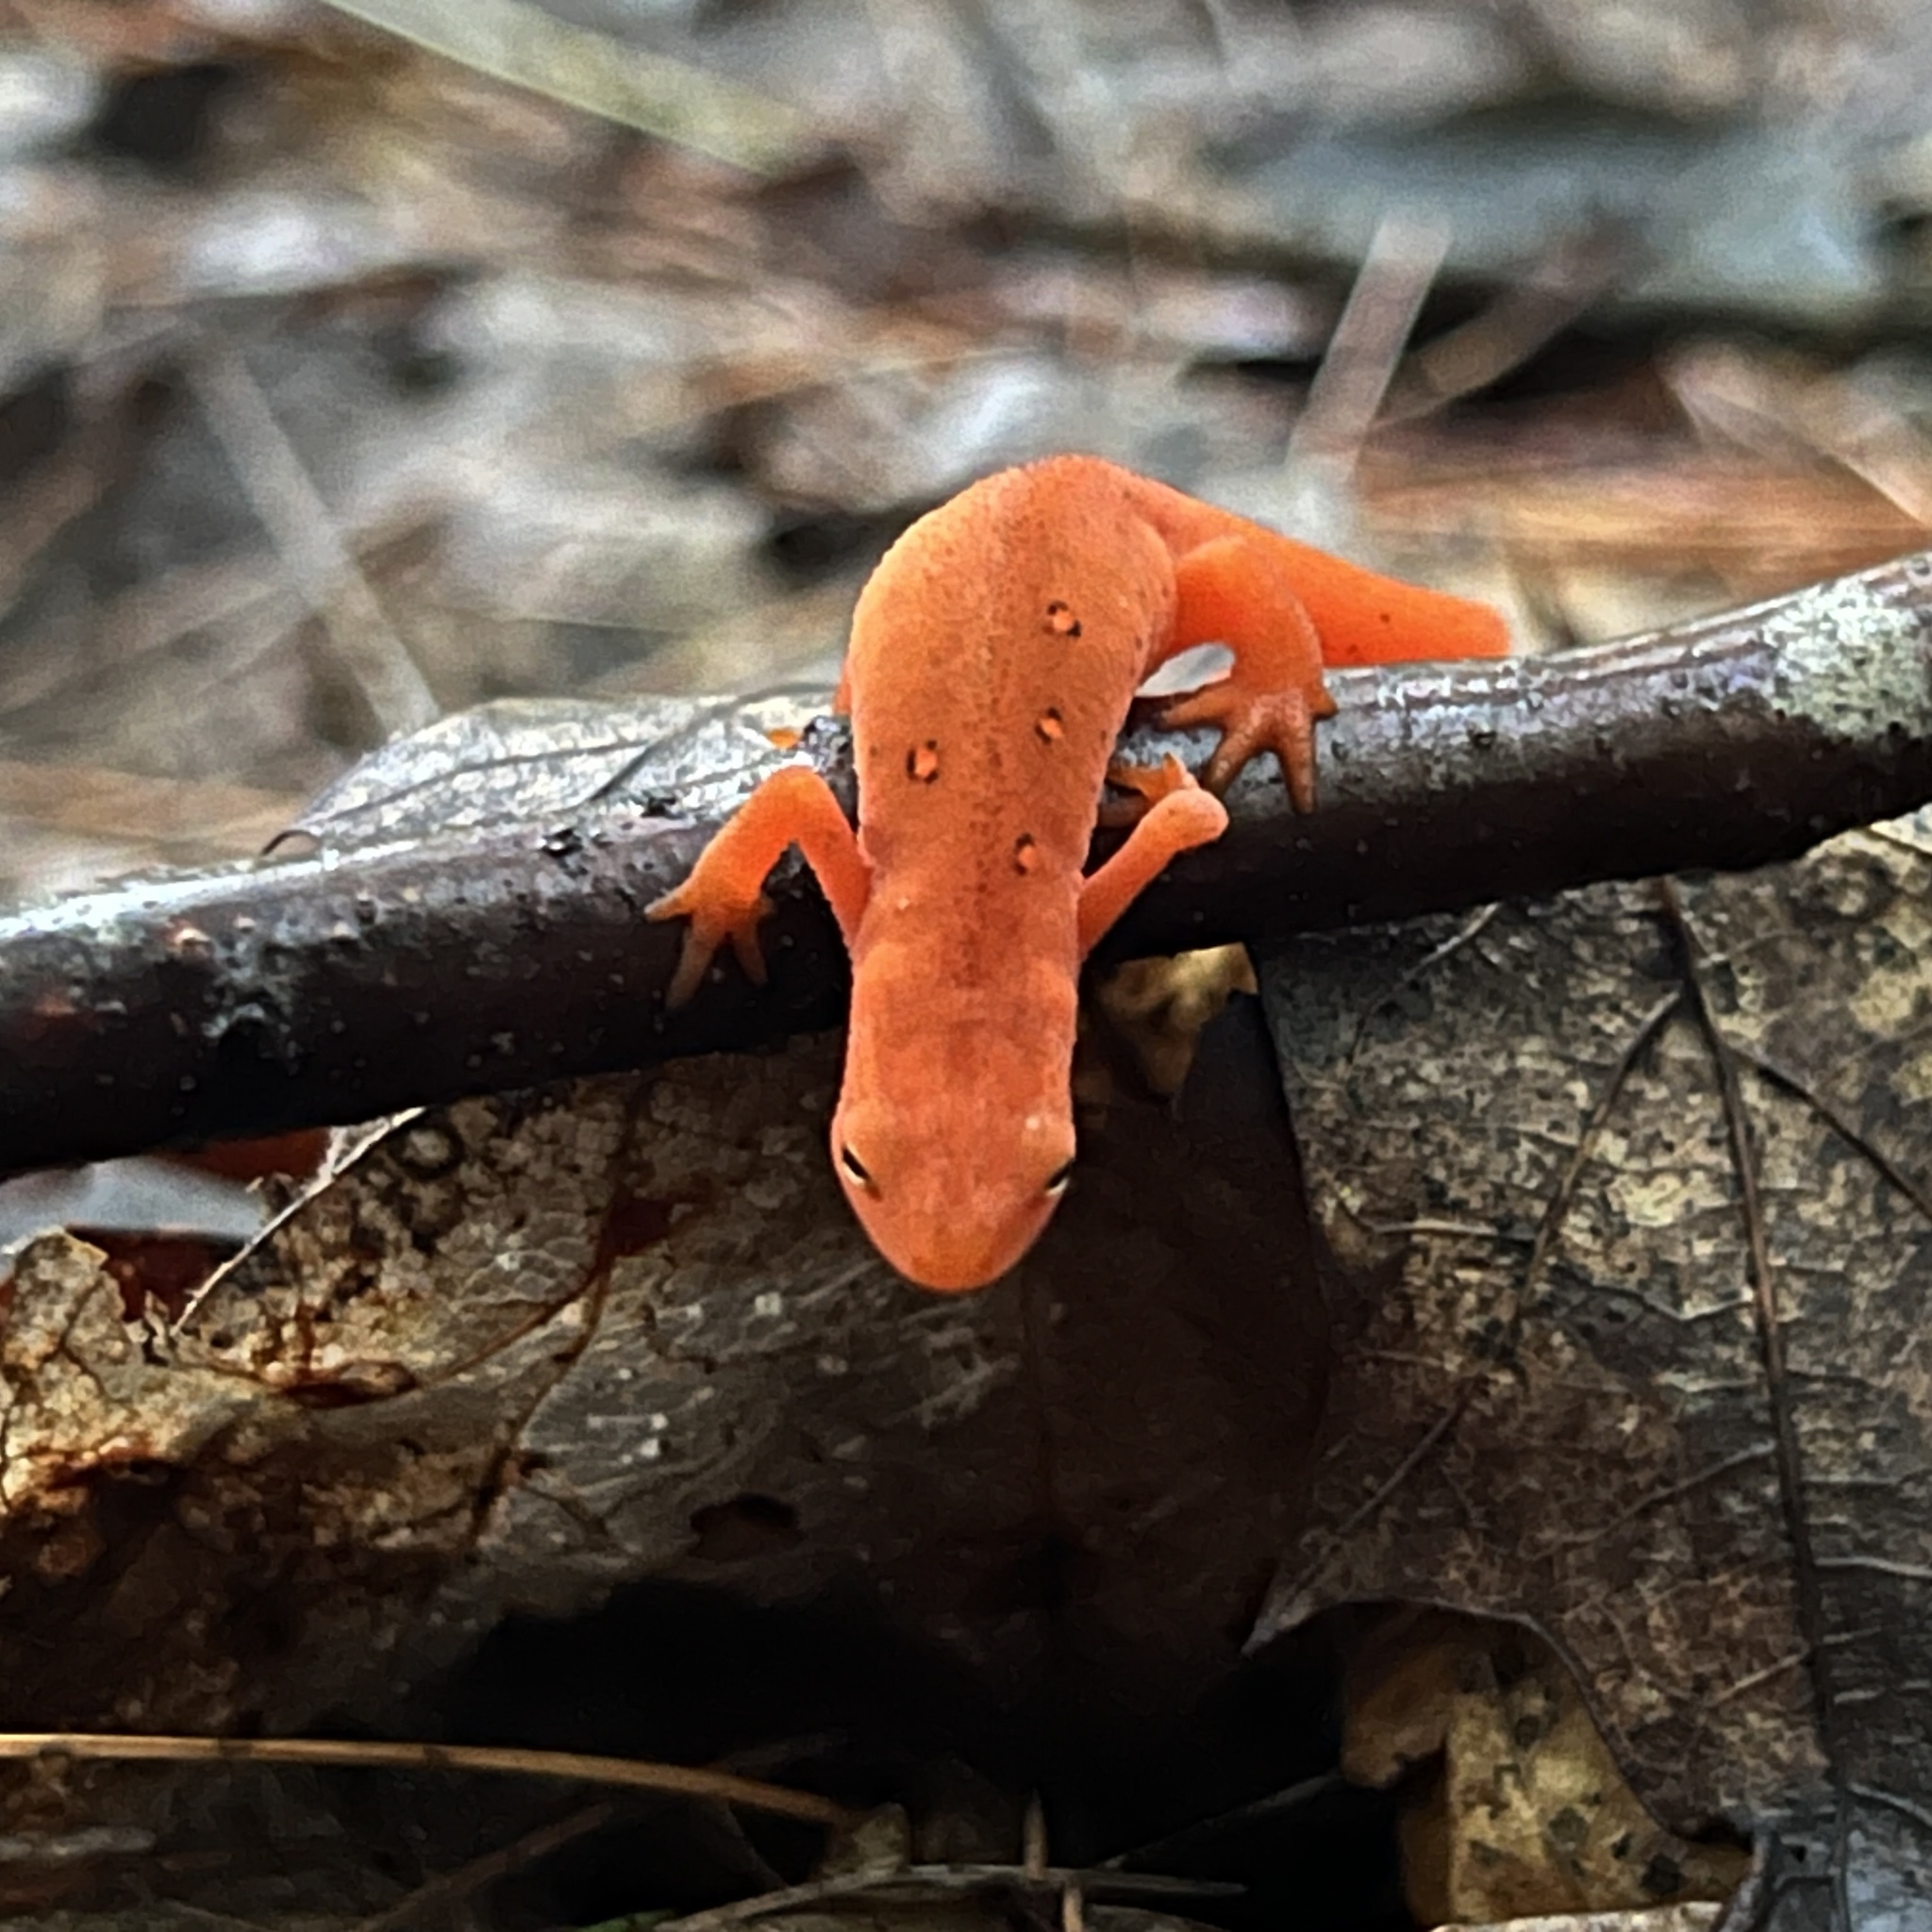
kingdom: Animalia
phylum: Chordata
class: Amphibia
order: Caudata
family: Salamandridae
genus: Notophthalmus
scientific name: Notophthalmus viridescens
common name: Eastern newt
